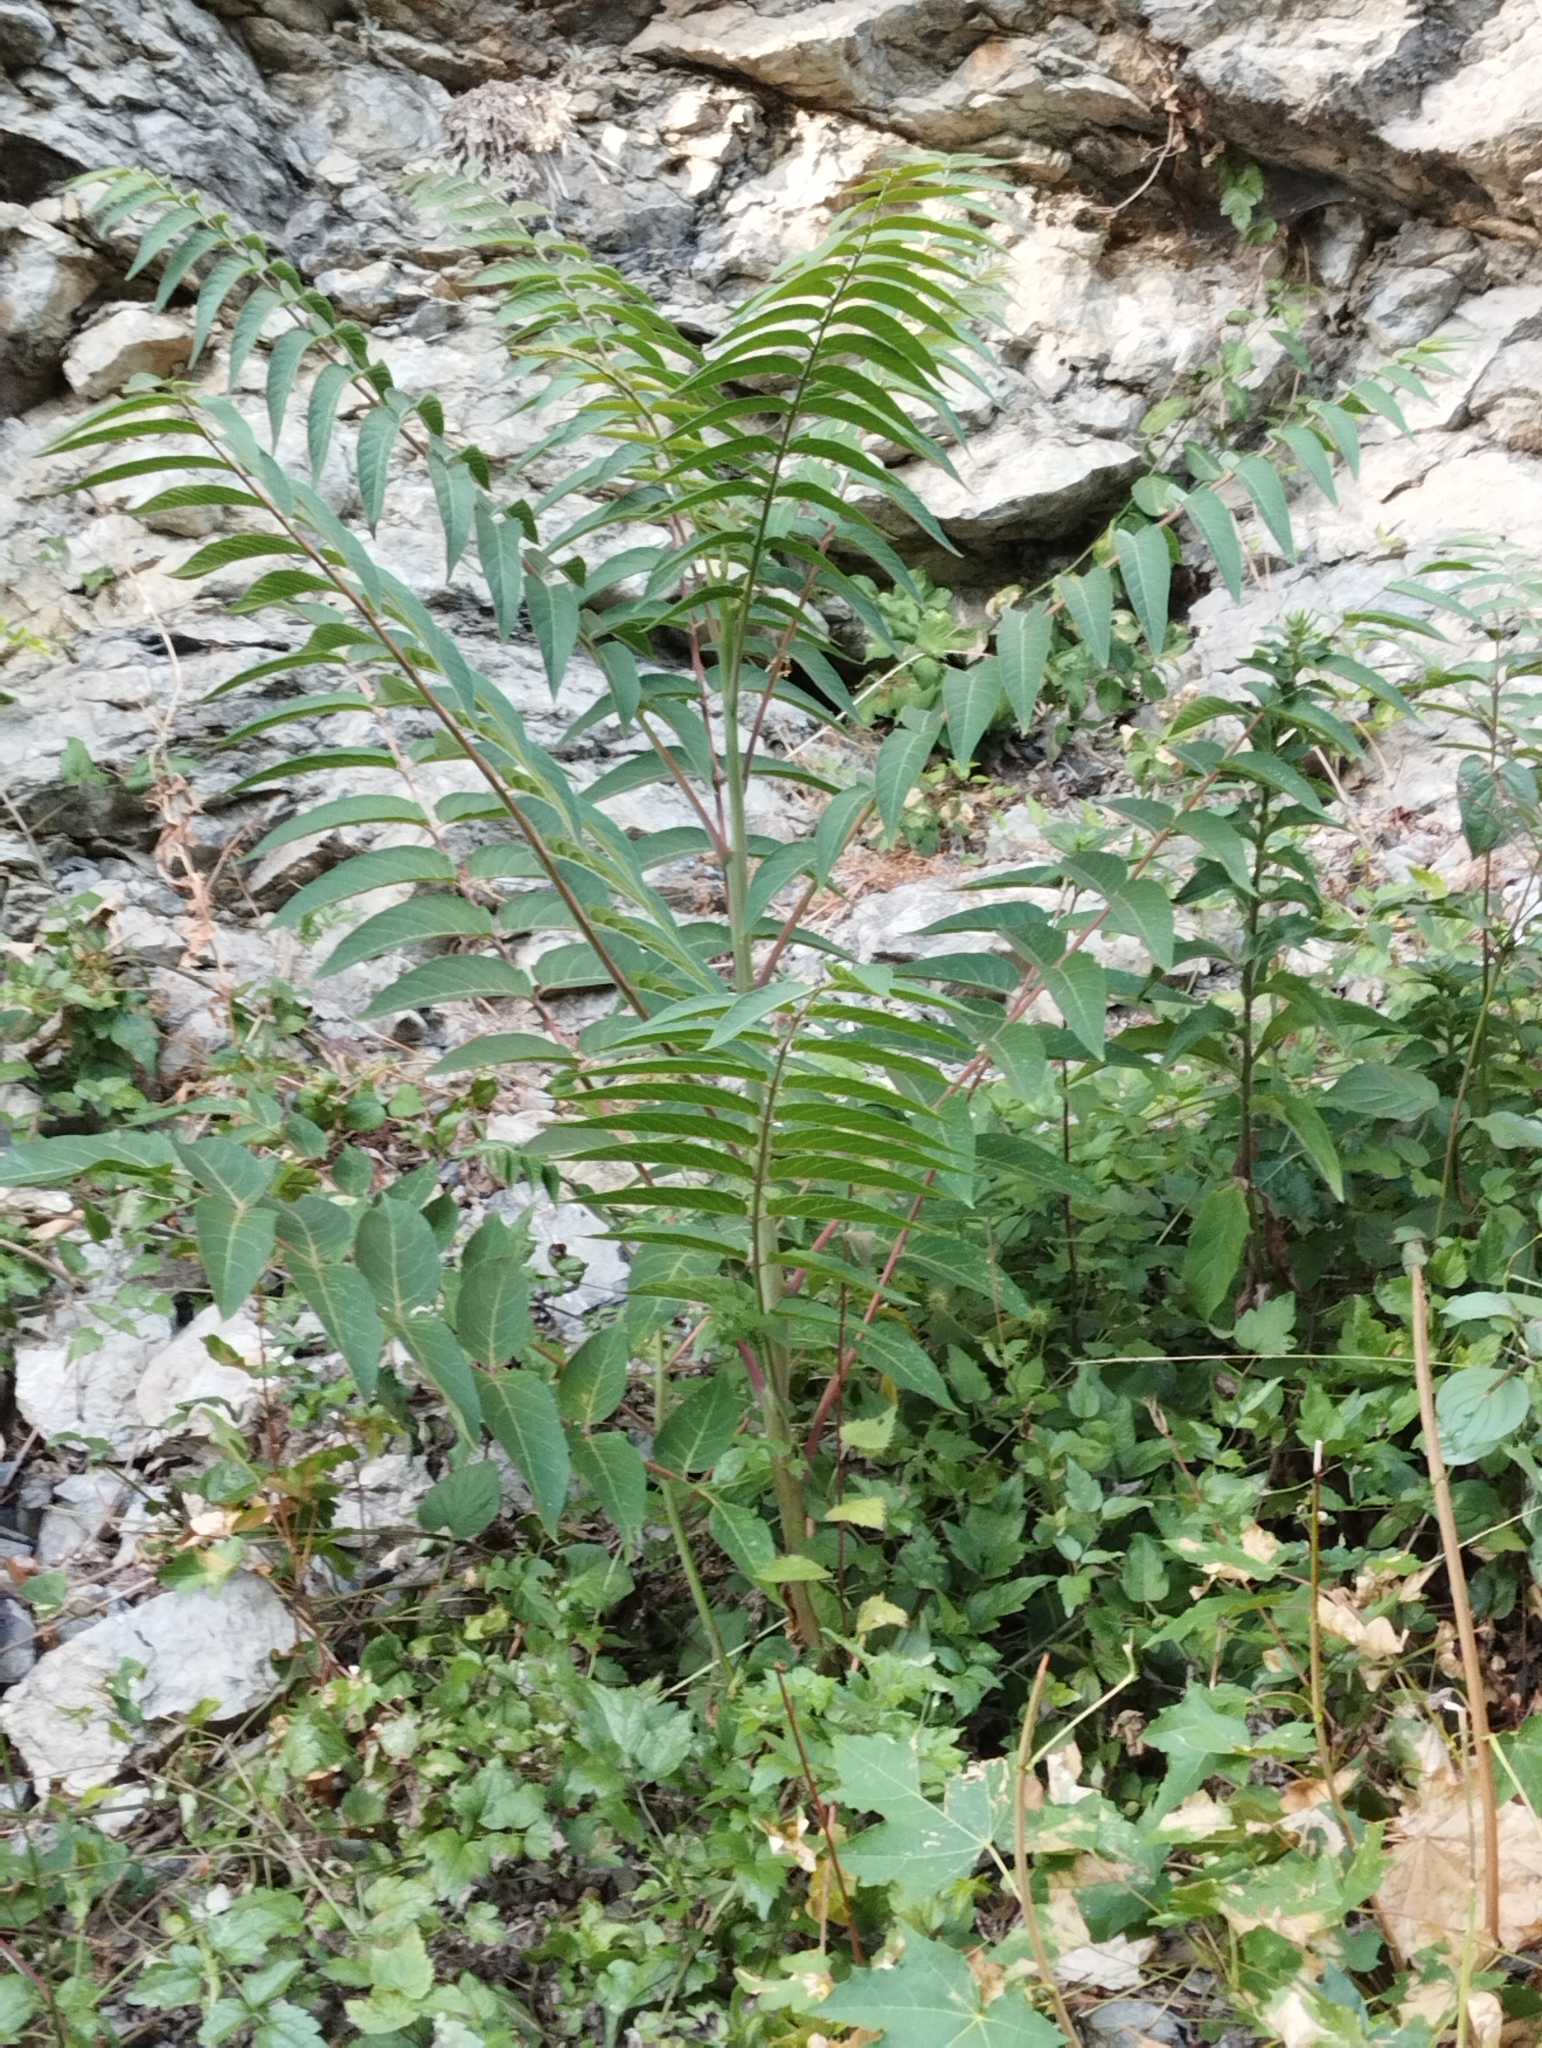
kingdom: Plantae
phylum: Tracheophyta
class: Magnoliopsida
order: Sapindales
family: Simaroubaceae
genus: Ailanthus
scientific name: Ailanthus altissima
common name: Tree-of-heaven
